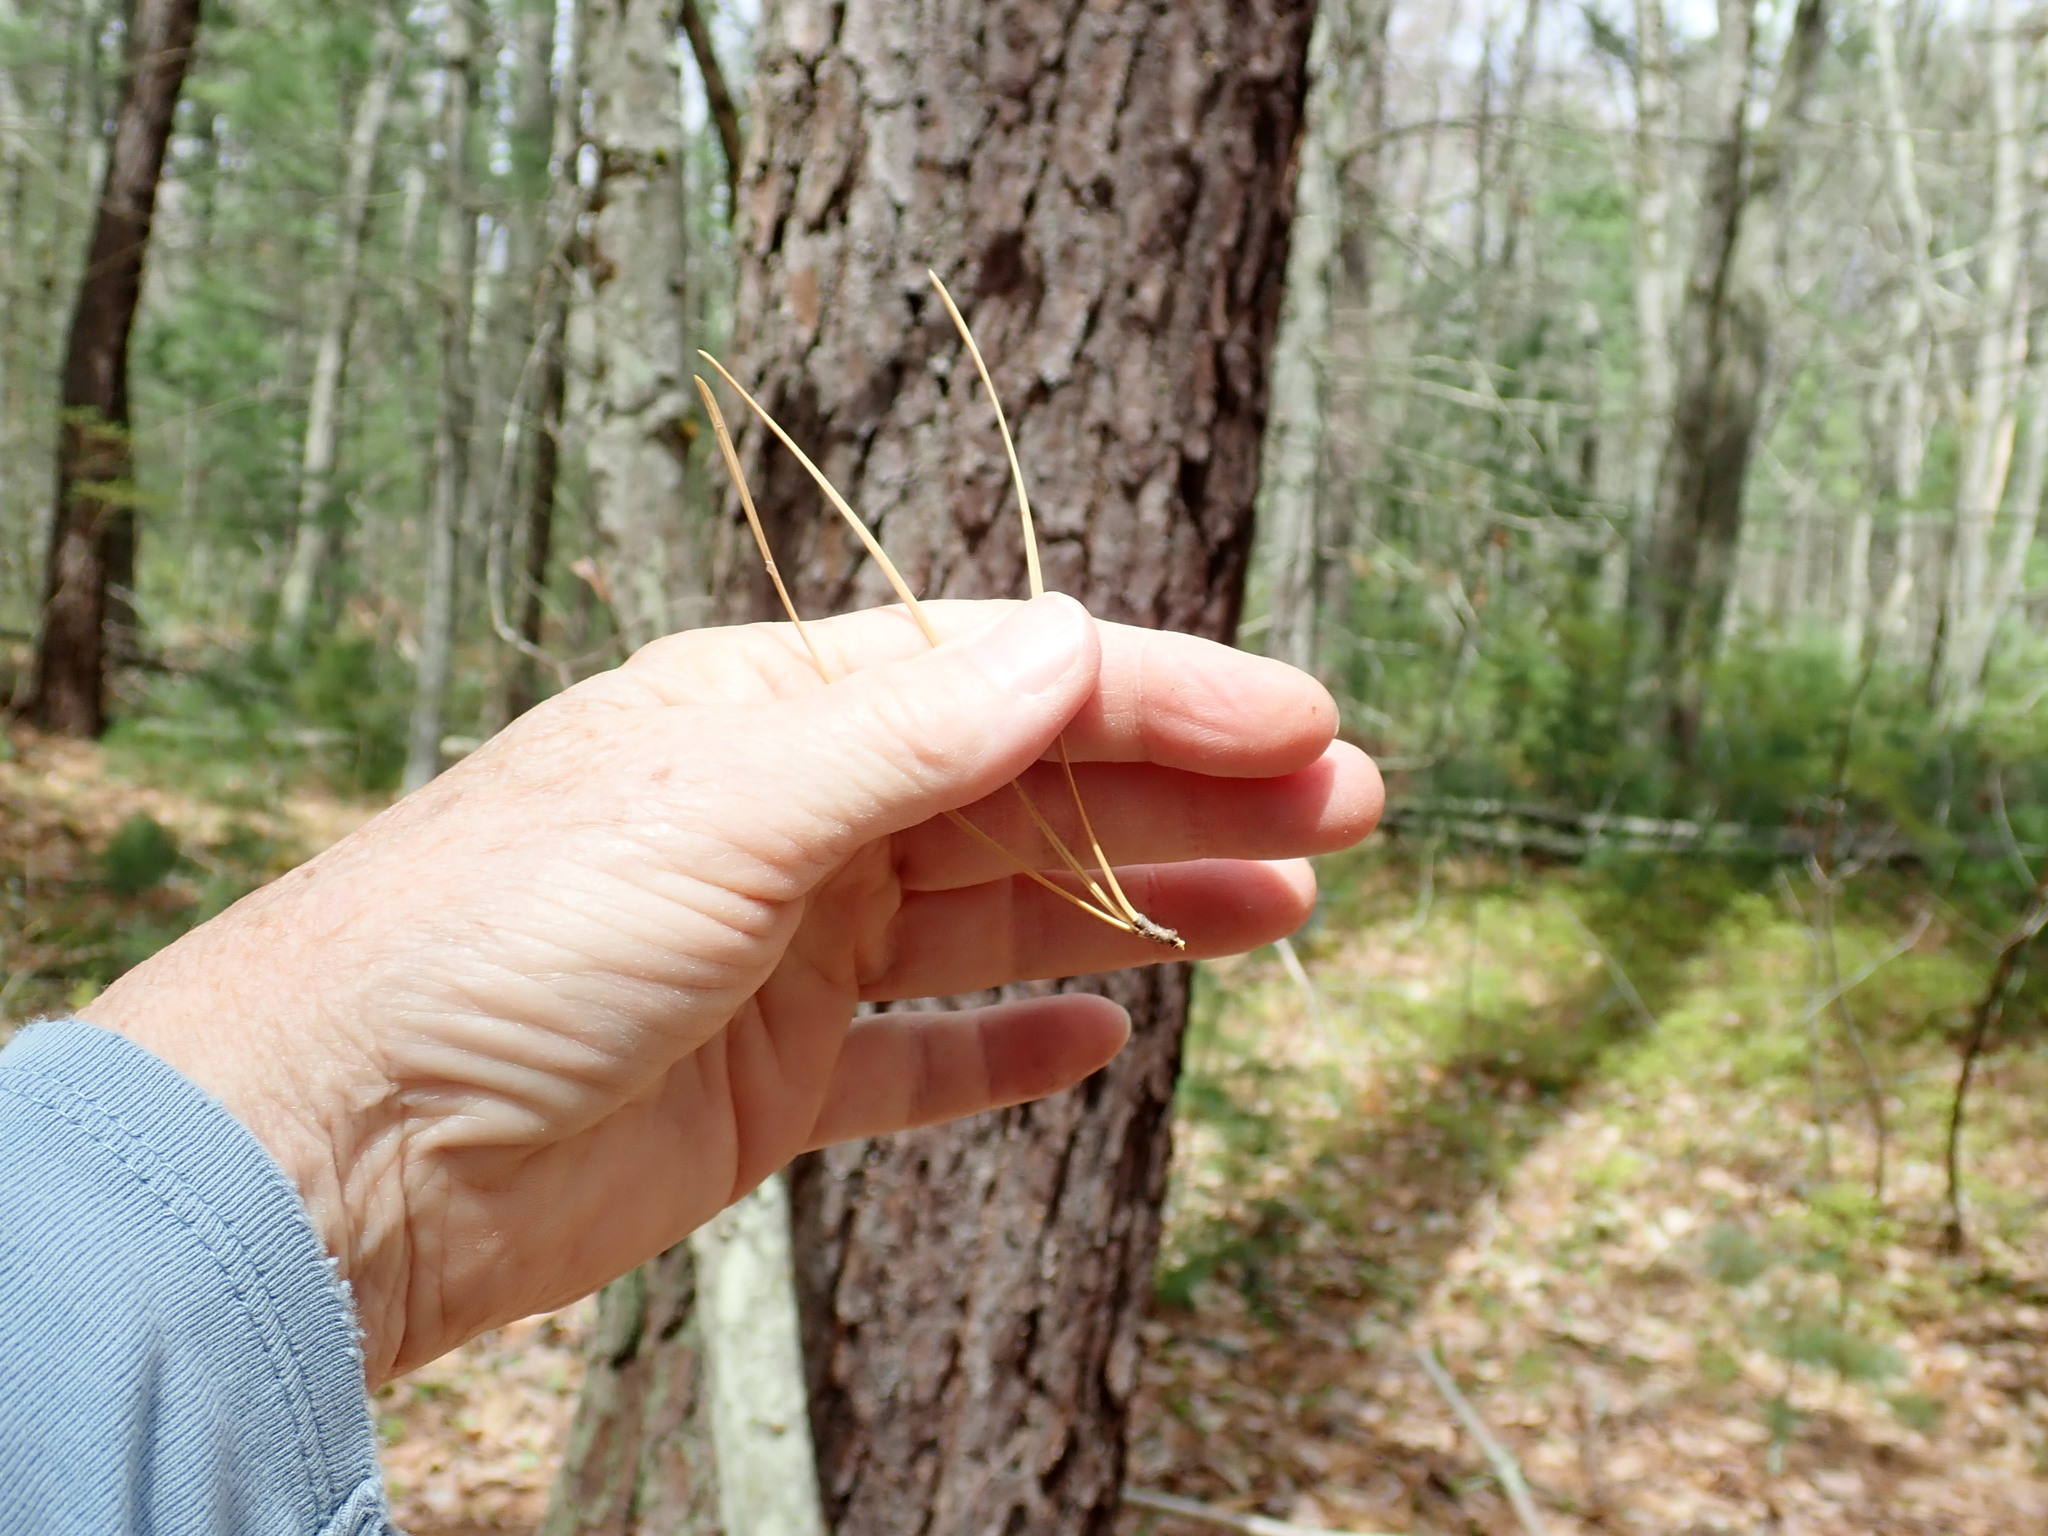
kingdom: Plantae
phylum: Tracheophyta
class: Pinopsida
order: Pinales
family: Pinaceae
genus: Pinus
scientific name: Pinus rigida
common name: Pitch pine
